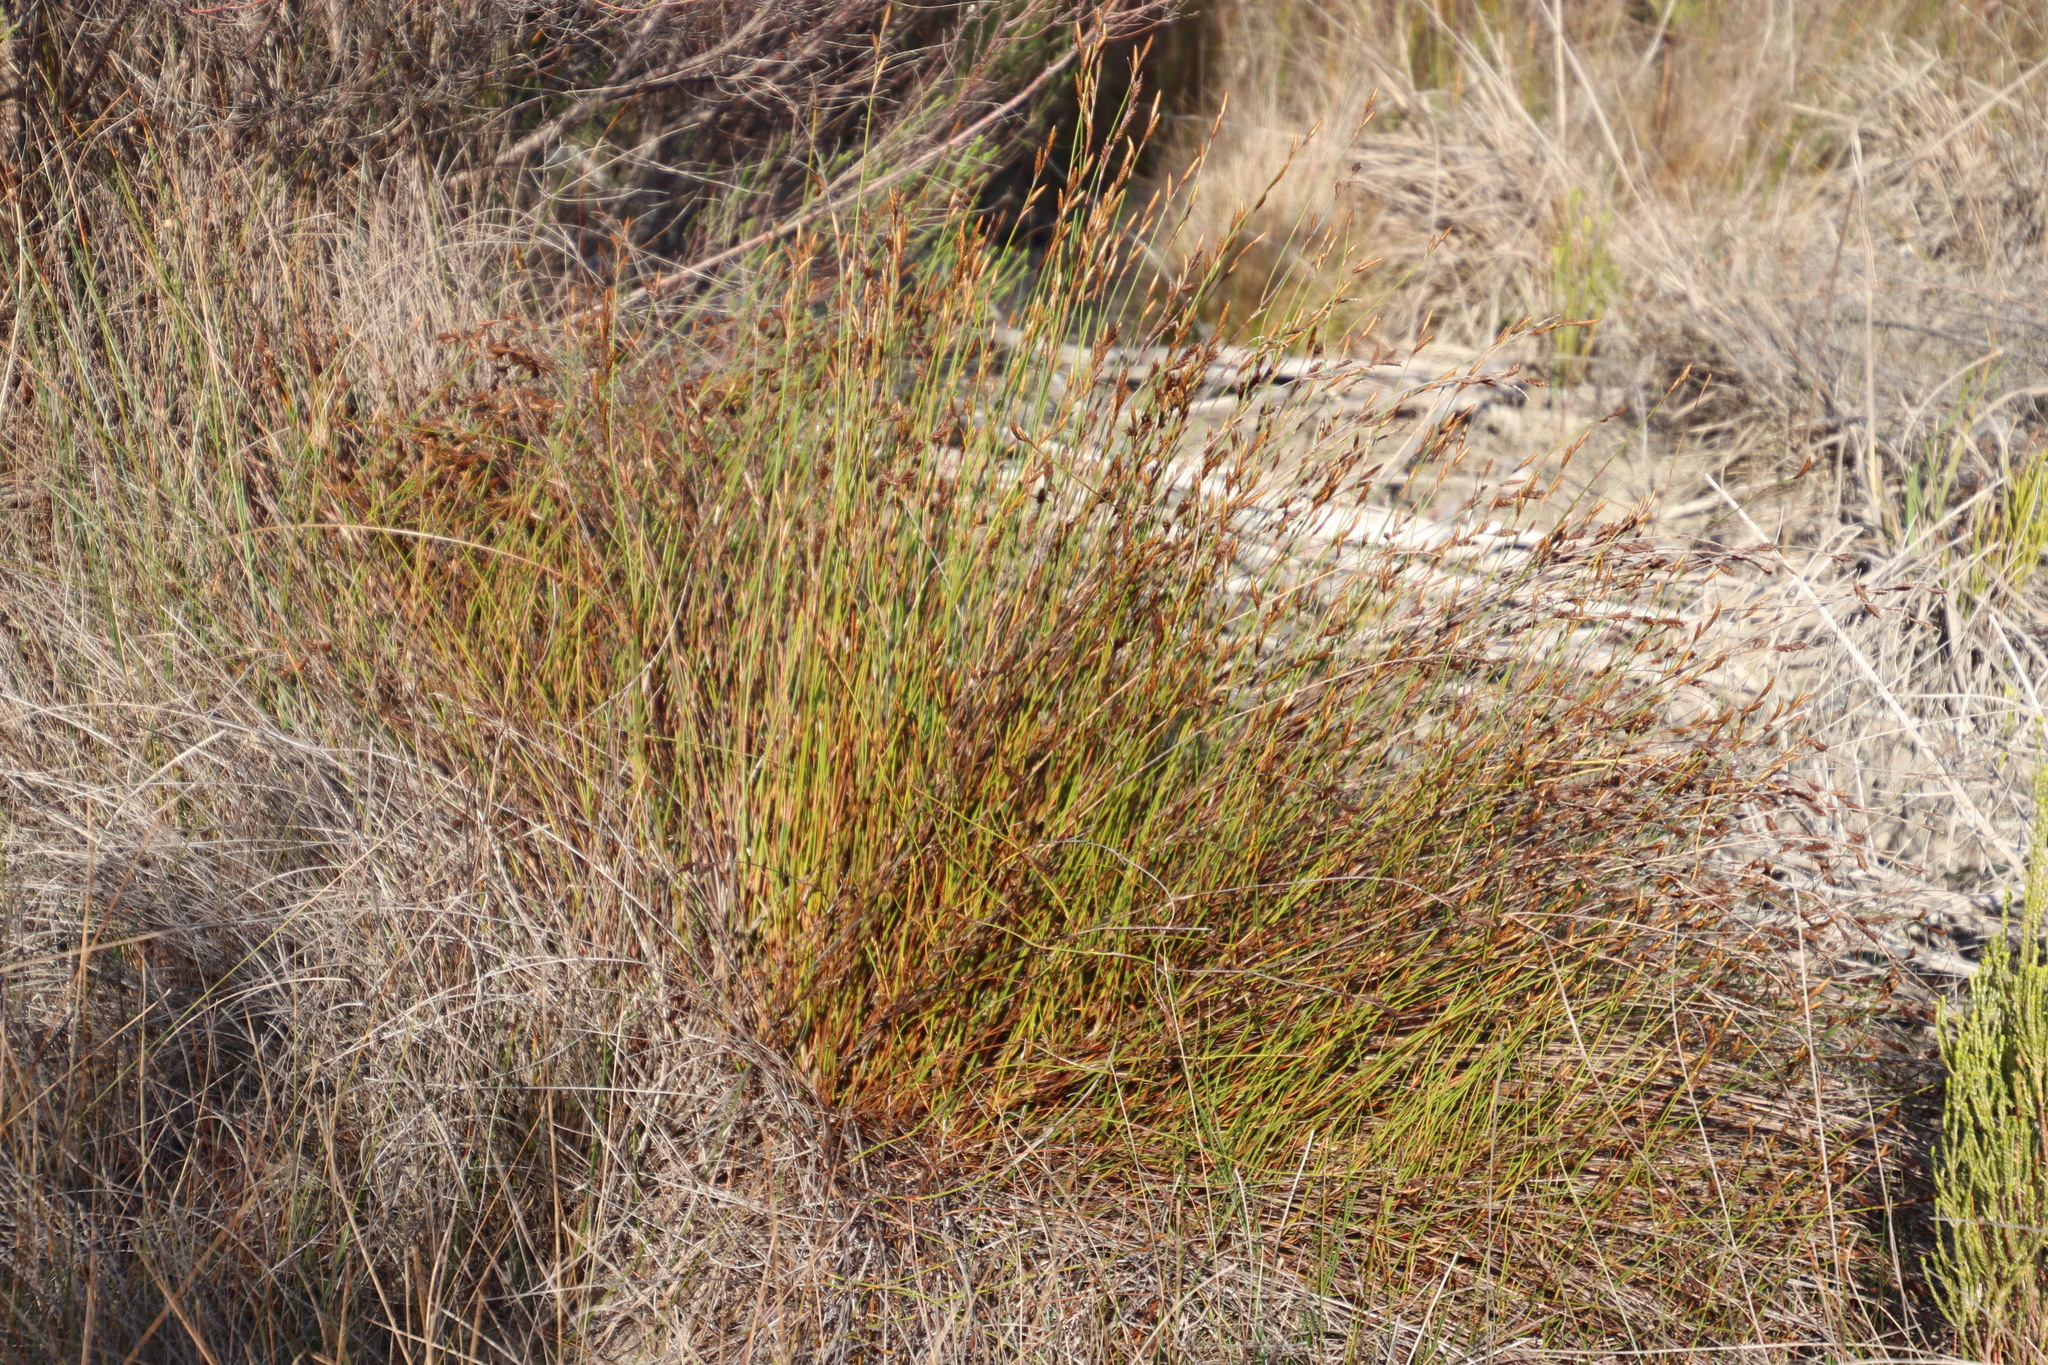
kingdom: Plantae
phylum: Tracheophyta
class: Liliopsida
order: Poales
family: Restionaceae
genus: Restio
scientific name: Restio bifurcus
